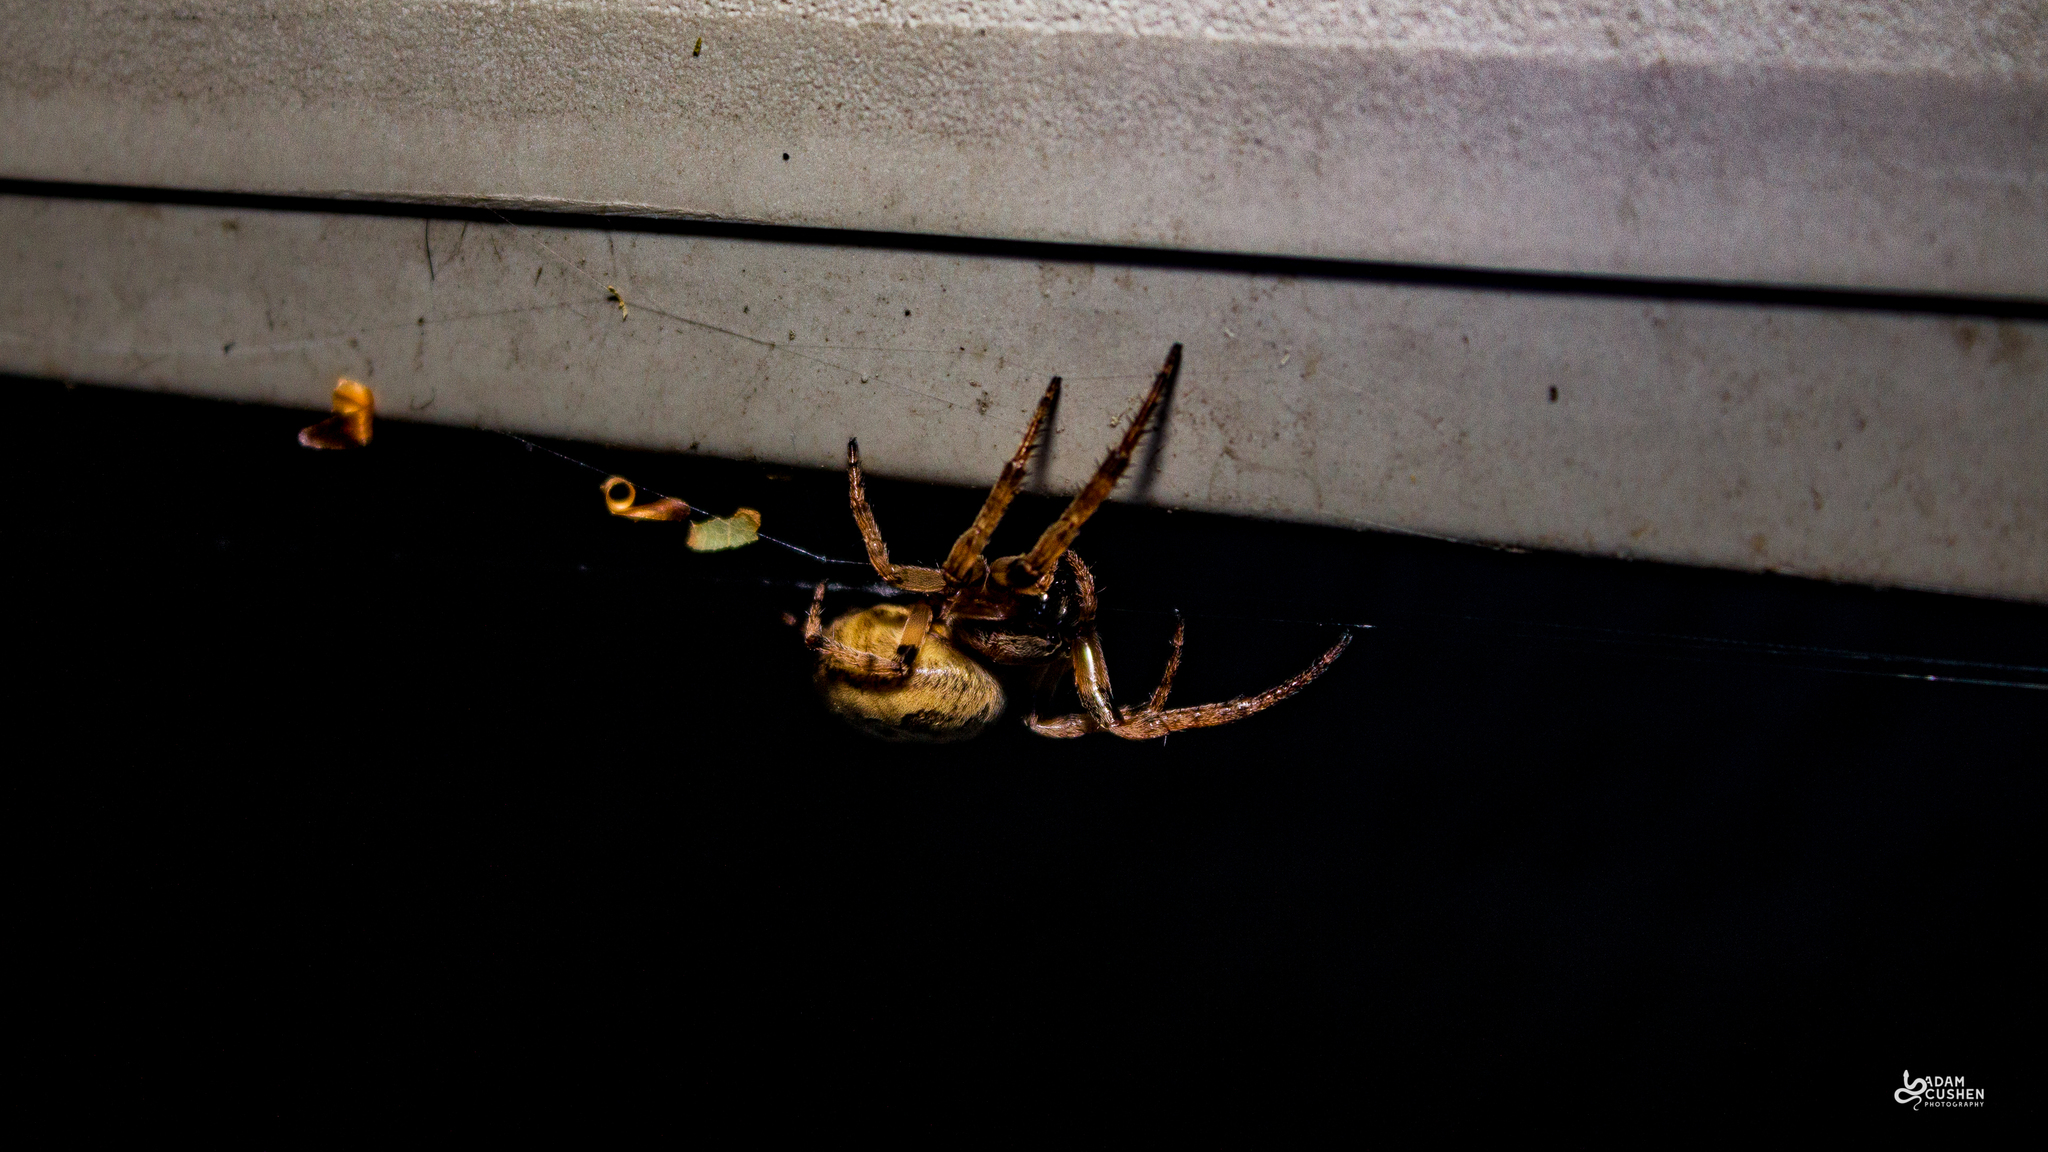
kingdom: Animalia
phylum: Arthropoda
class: Arachnida
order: Araneae
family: Araneidae
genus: Larinioides
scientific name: Larinioides cornutus
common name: Furrow orbweaver
